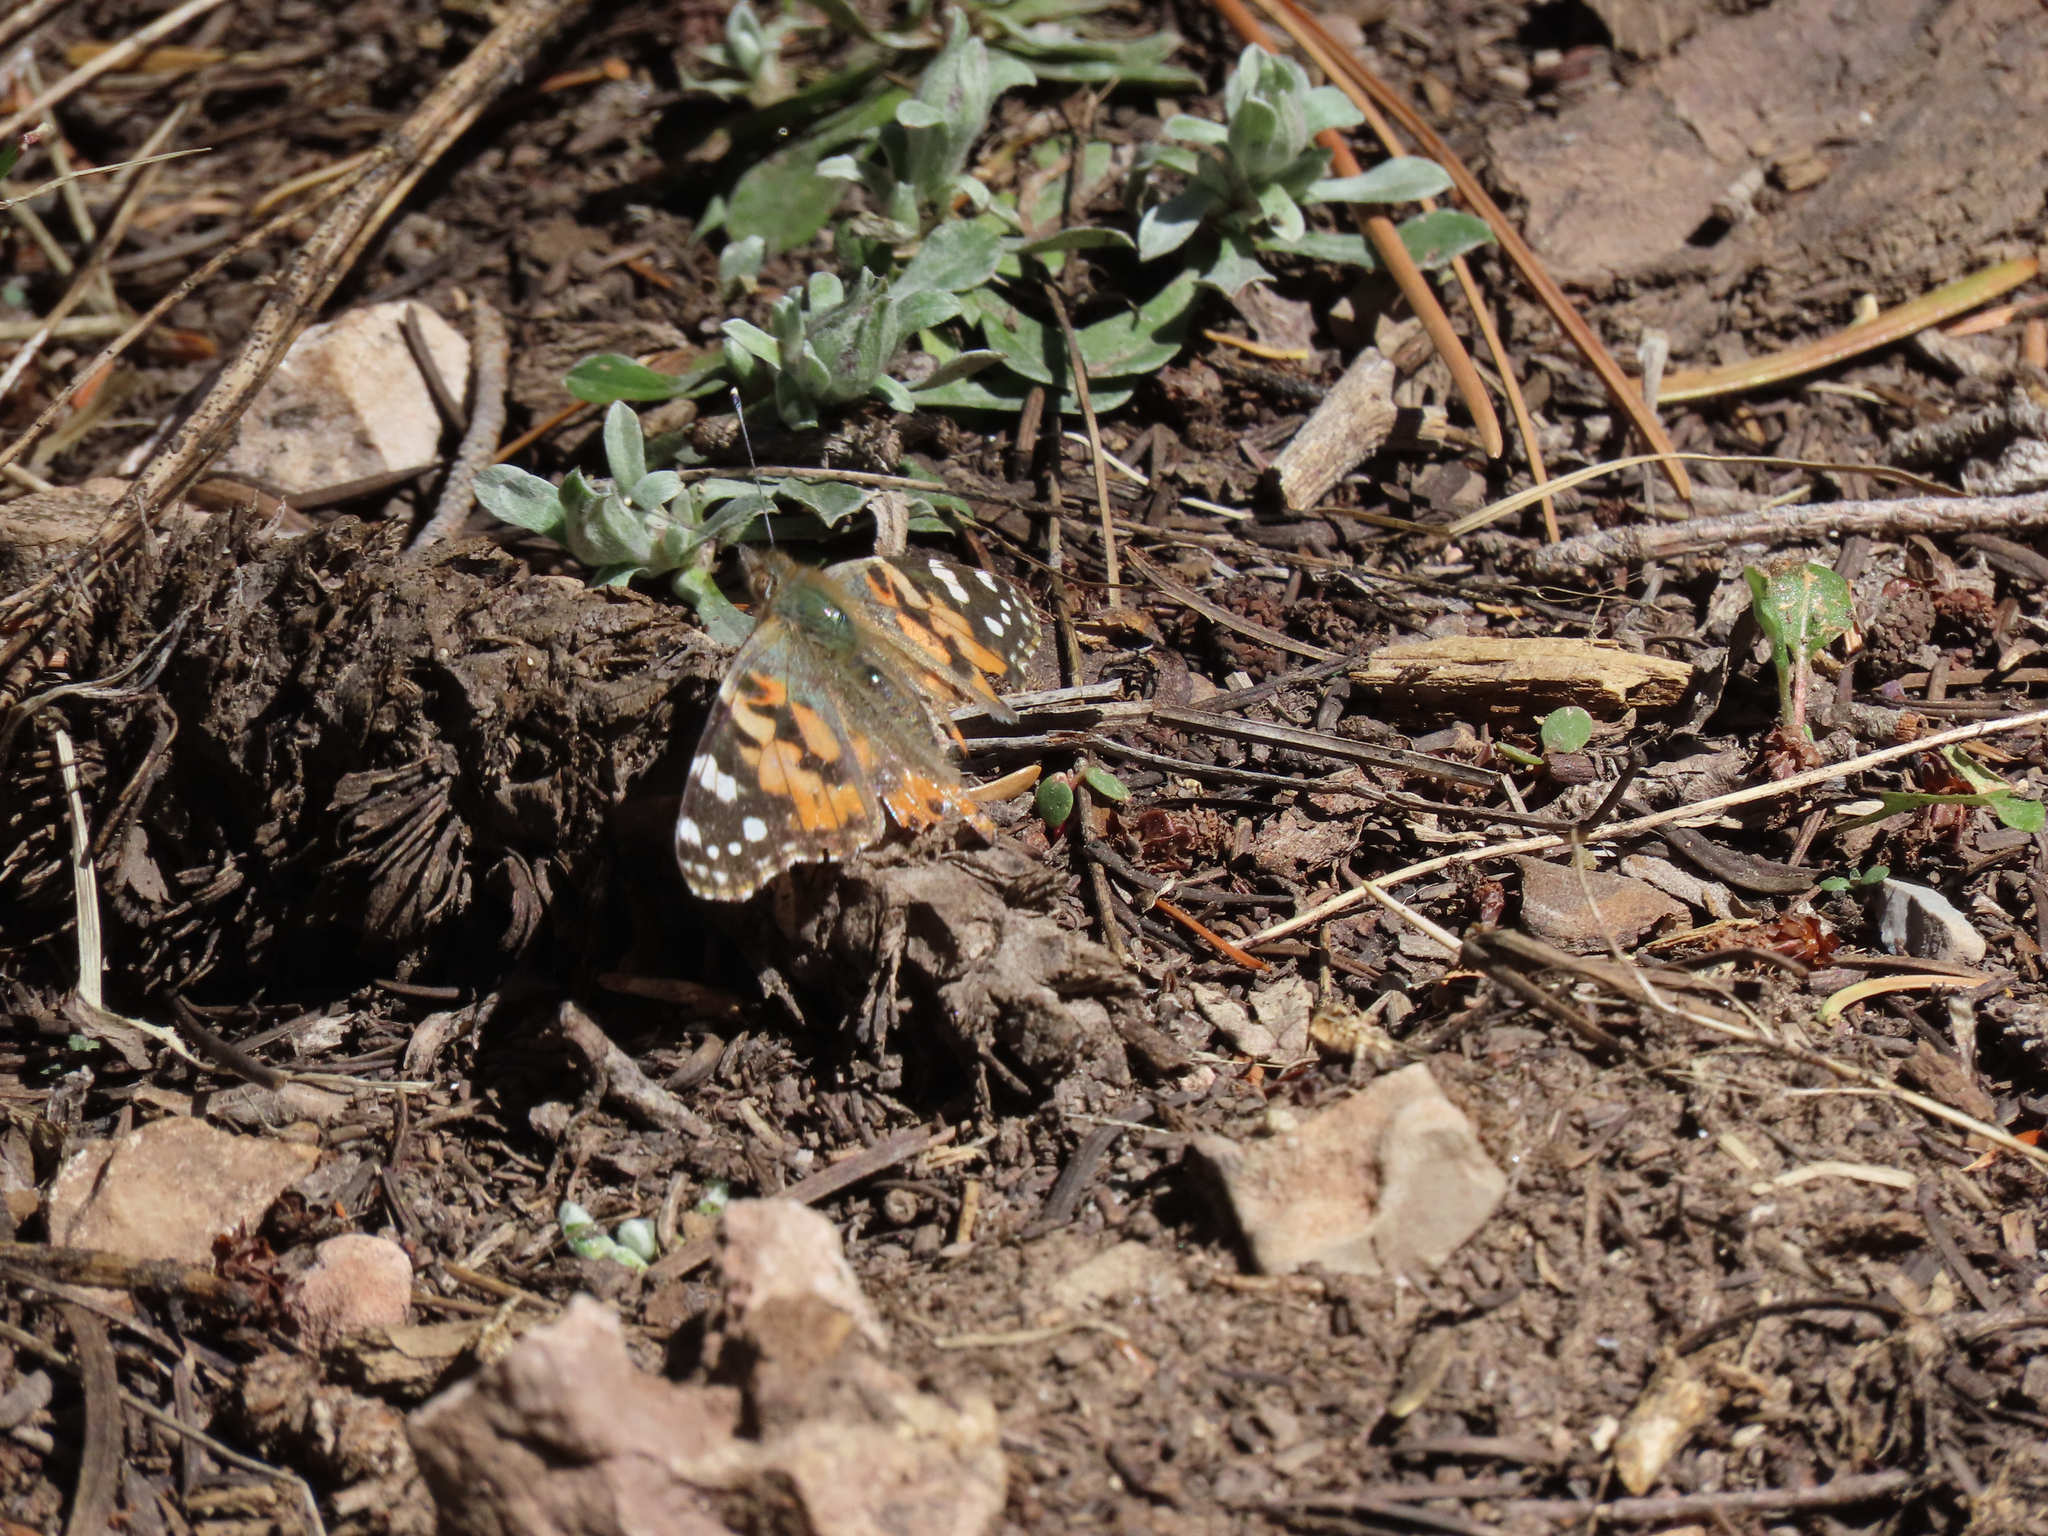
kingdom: Animalia
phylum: Arthropoda
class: Insecta
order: Lepidoptera
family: Nymphalidae
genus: Vanessa
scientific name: Vanessa cardui
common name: Painted lady
